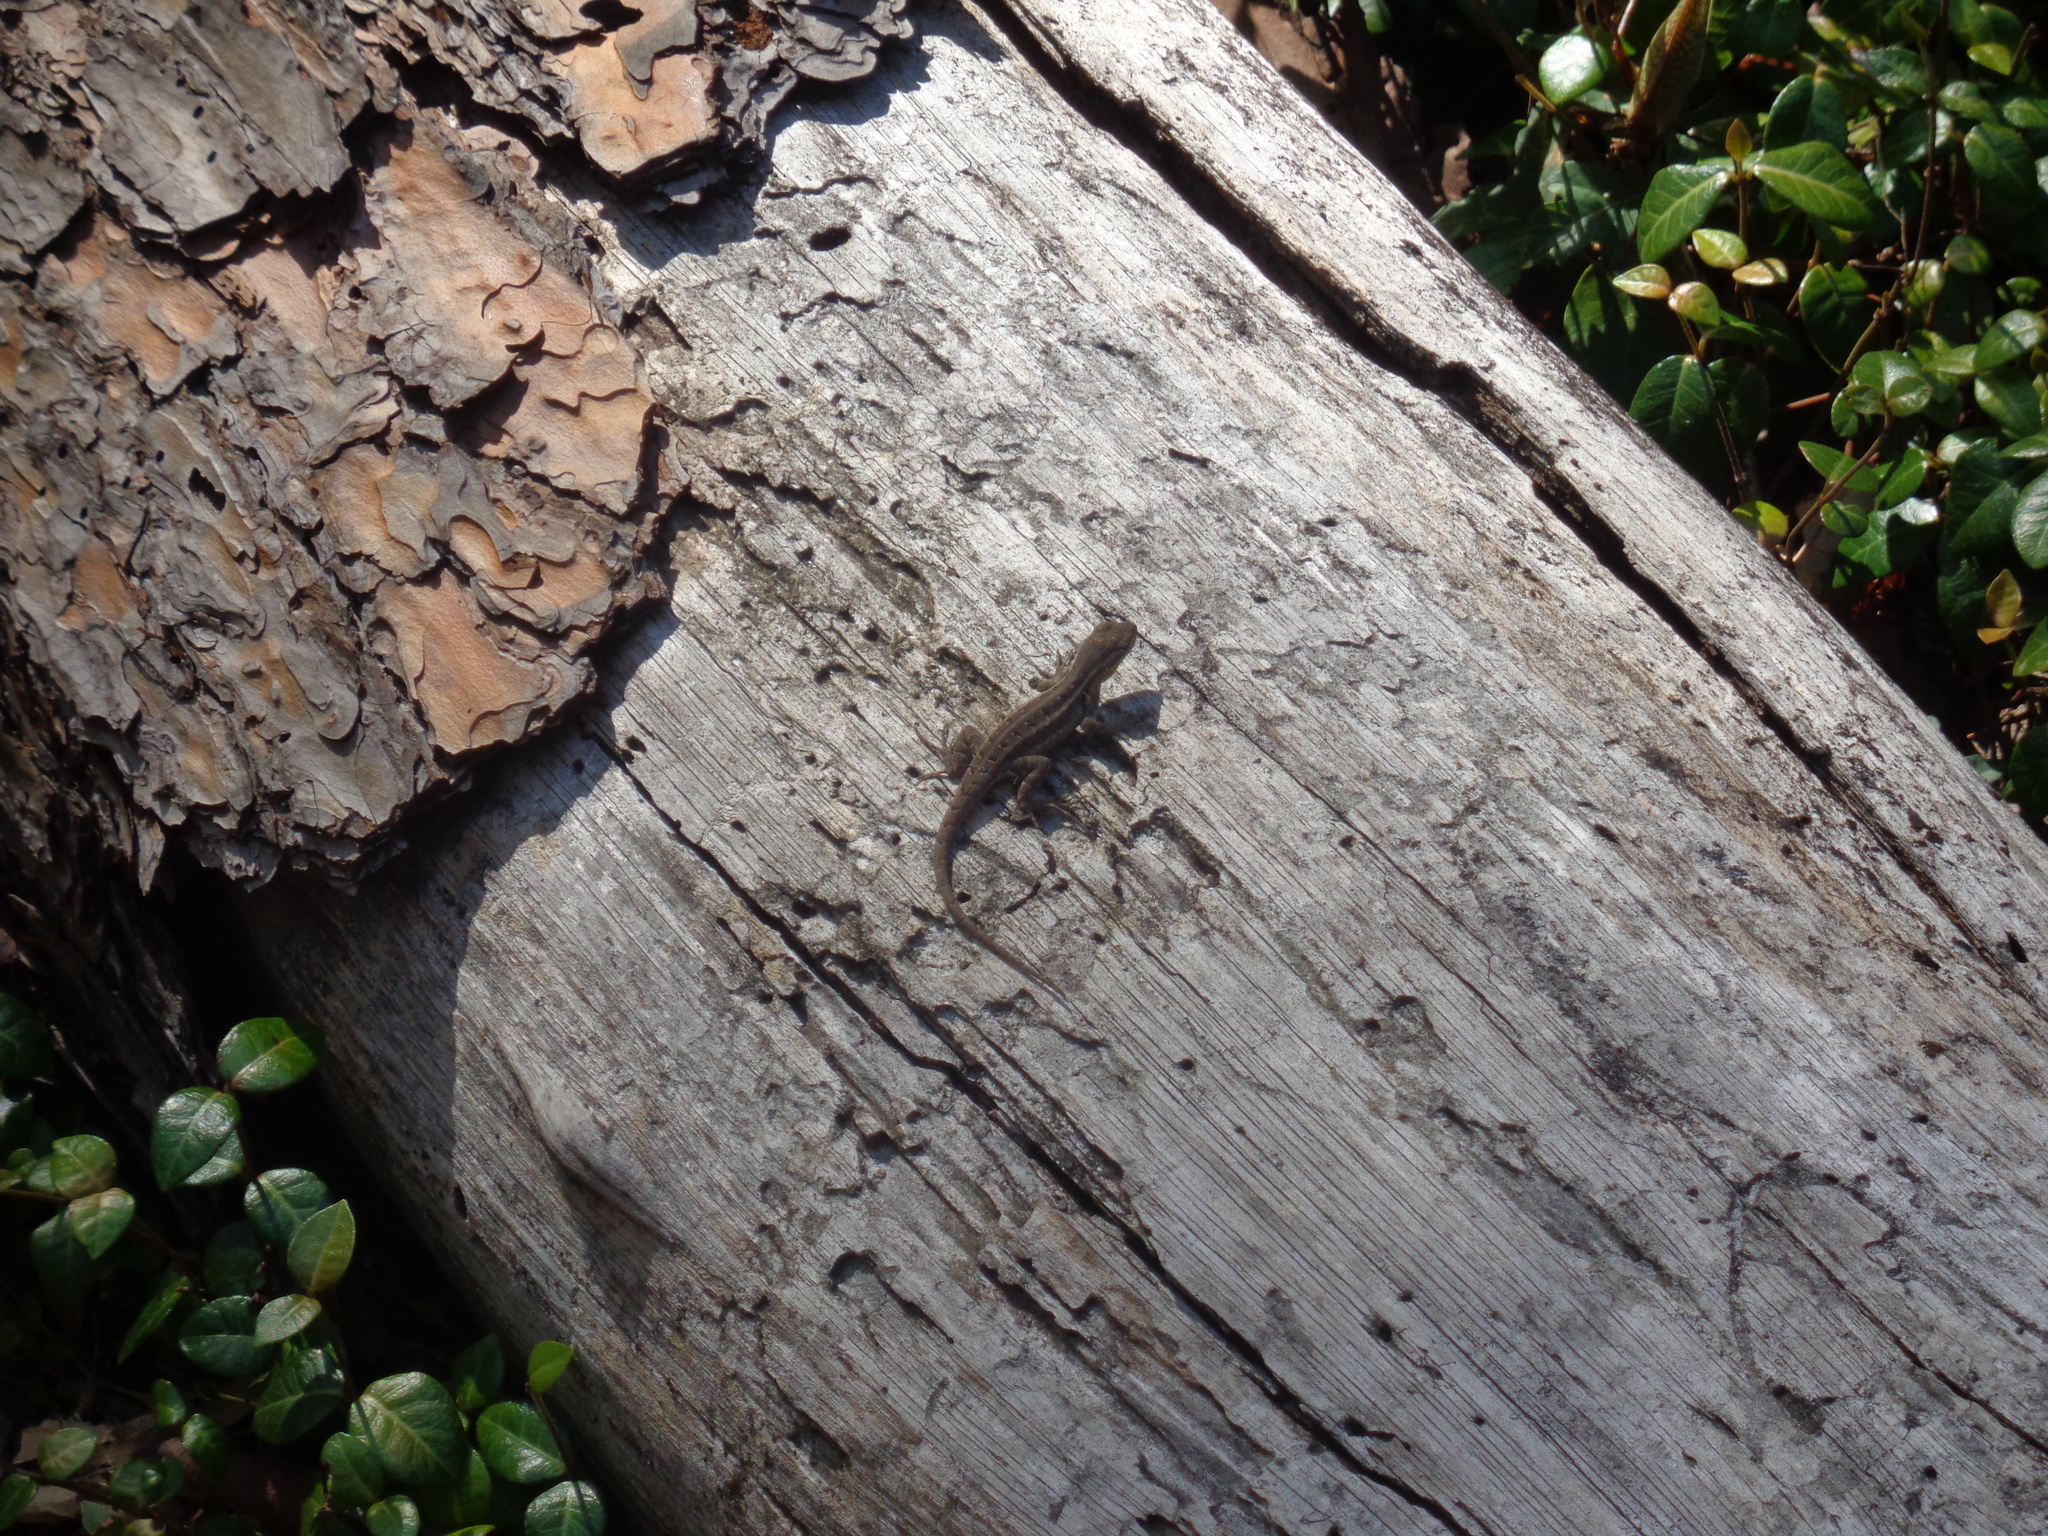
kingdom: Animalia
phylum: Chordata
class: Squamata
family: Phrynosomatidae
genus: Sceloporus
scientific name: Sceloporus variabilis
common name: Rosebelly lizard
